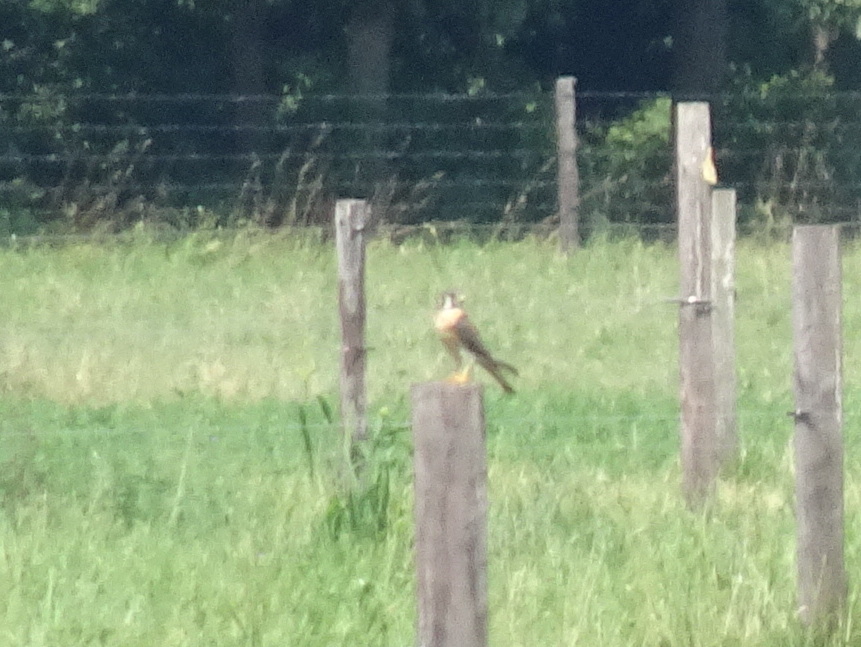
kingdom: Animalia
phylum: Chordata
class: Aves
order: Falconiformes
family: Falconidae
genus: Falco
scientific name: Falco sparverius
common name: American kestrel
